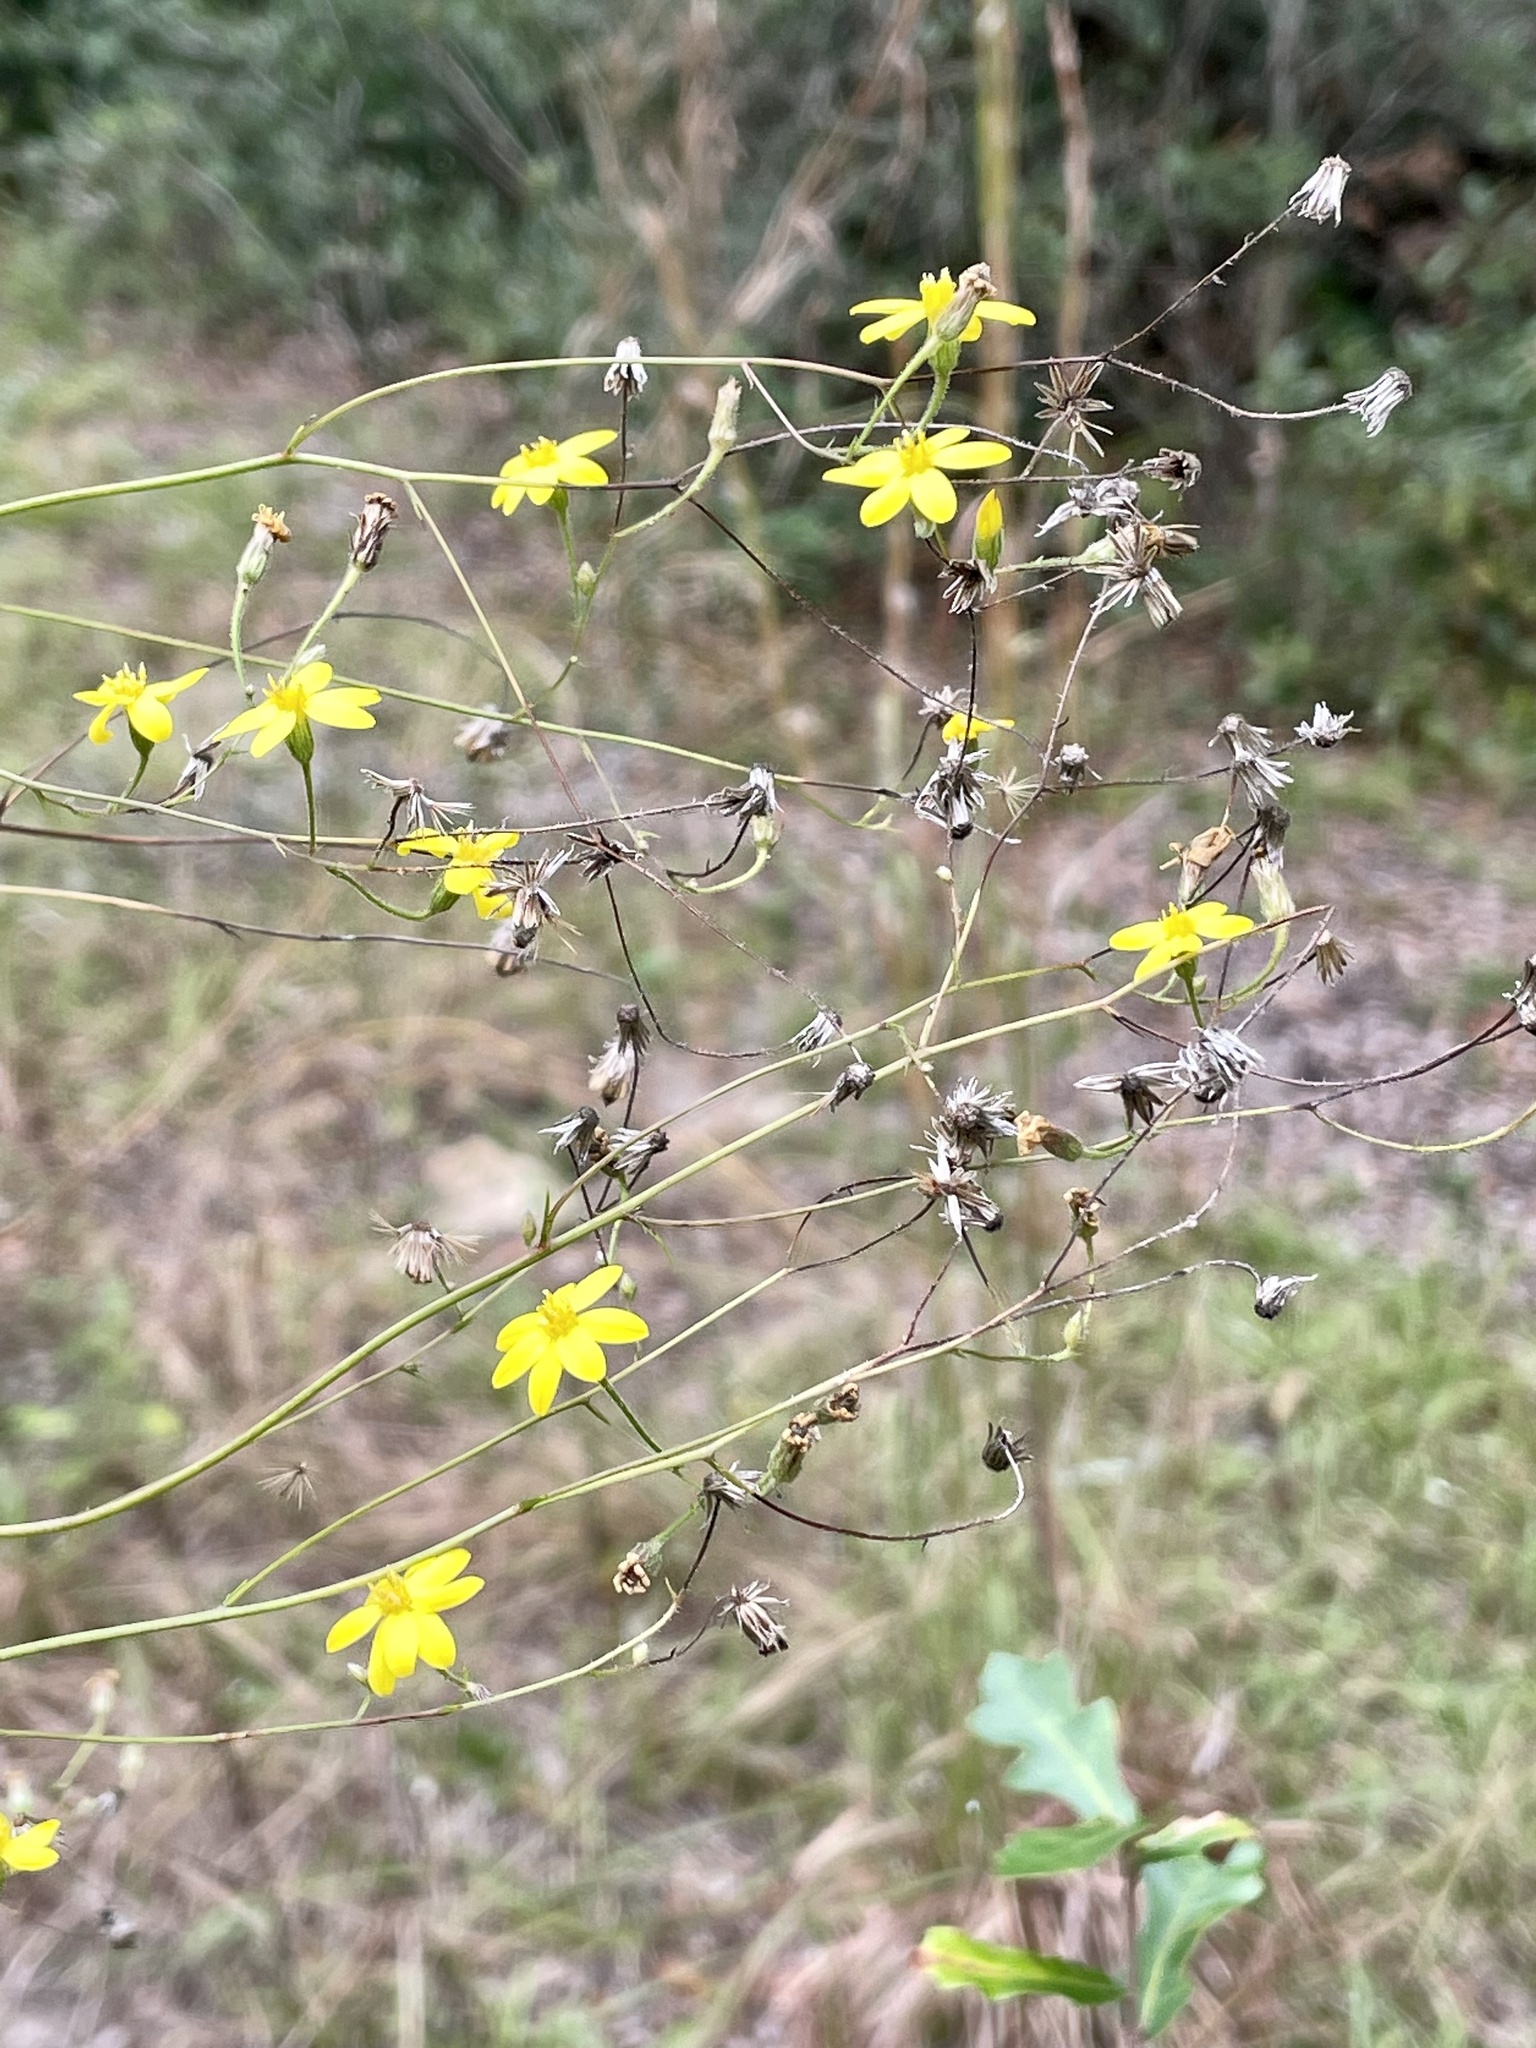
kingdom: Plantae
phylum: Tracheophyta
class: Magnoliopsida
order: Asterales
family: Asteraceae
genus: Croptilon
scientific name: Croptilon divaricatum
